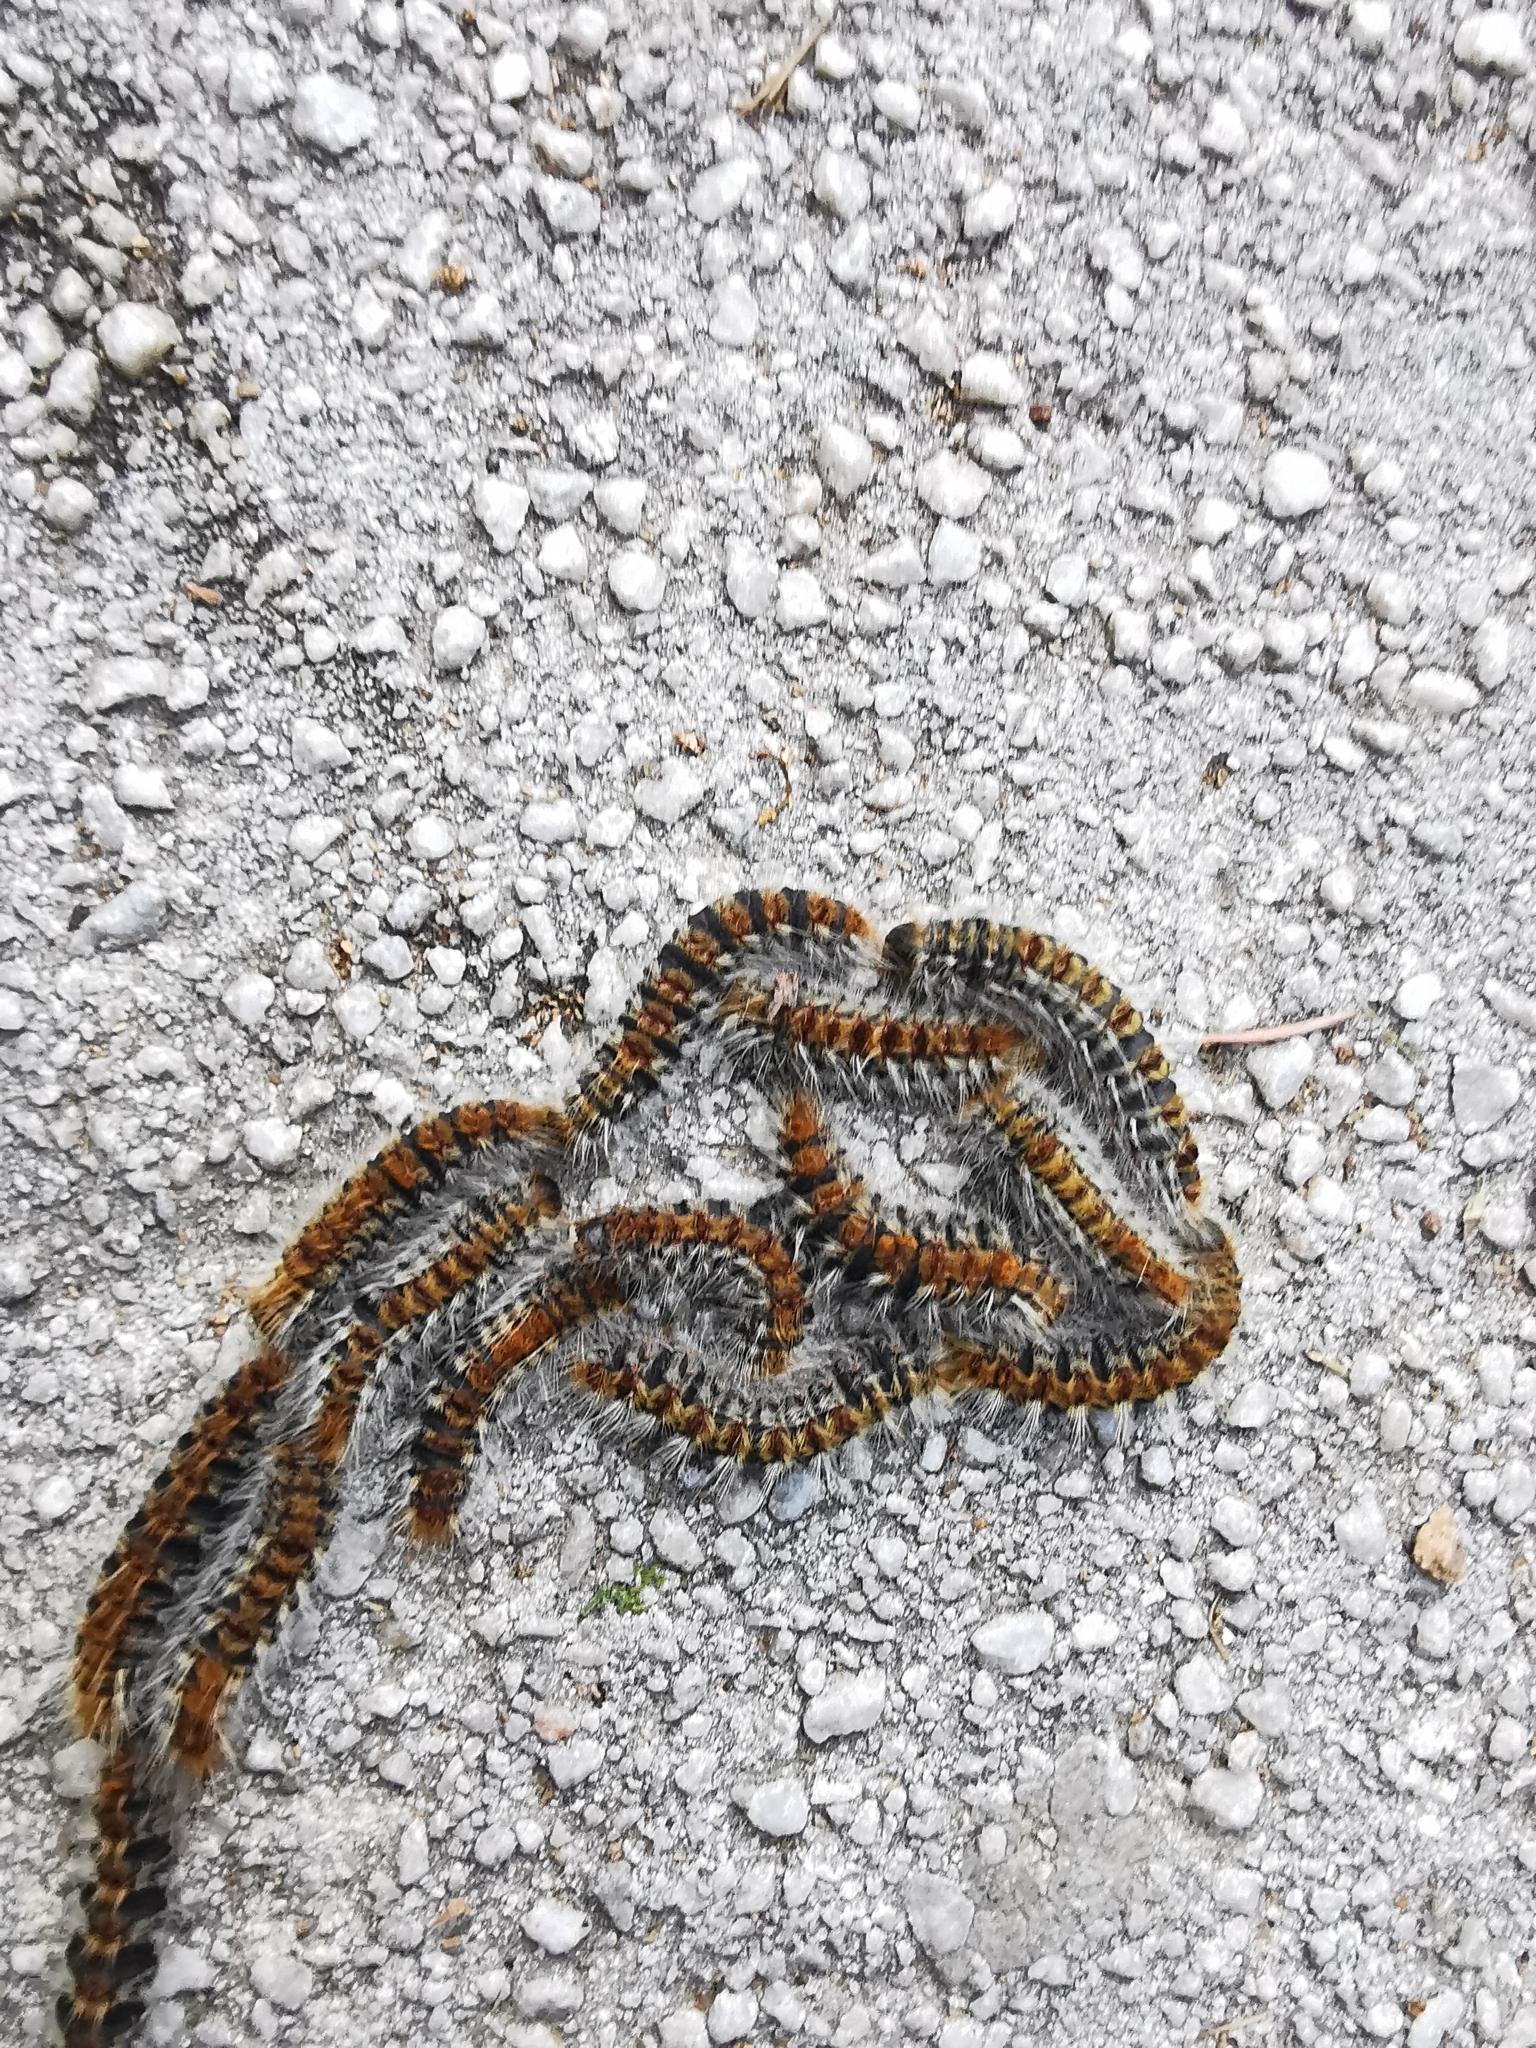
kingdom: Animalia
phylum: Arthropoda
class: Insecta
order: Lepidoptera
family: Notodontidae
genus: Thaumetopoea
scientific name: Thaumetopoea pityocampa
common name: Pine processionary
